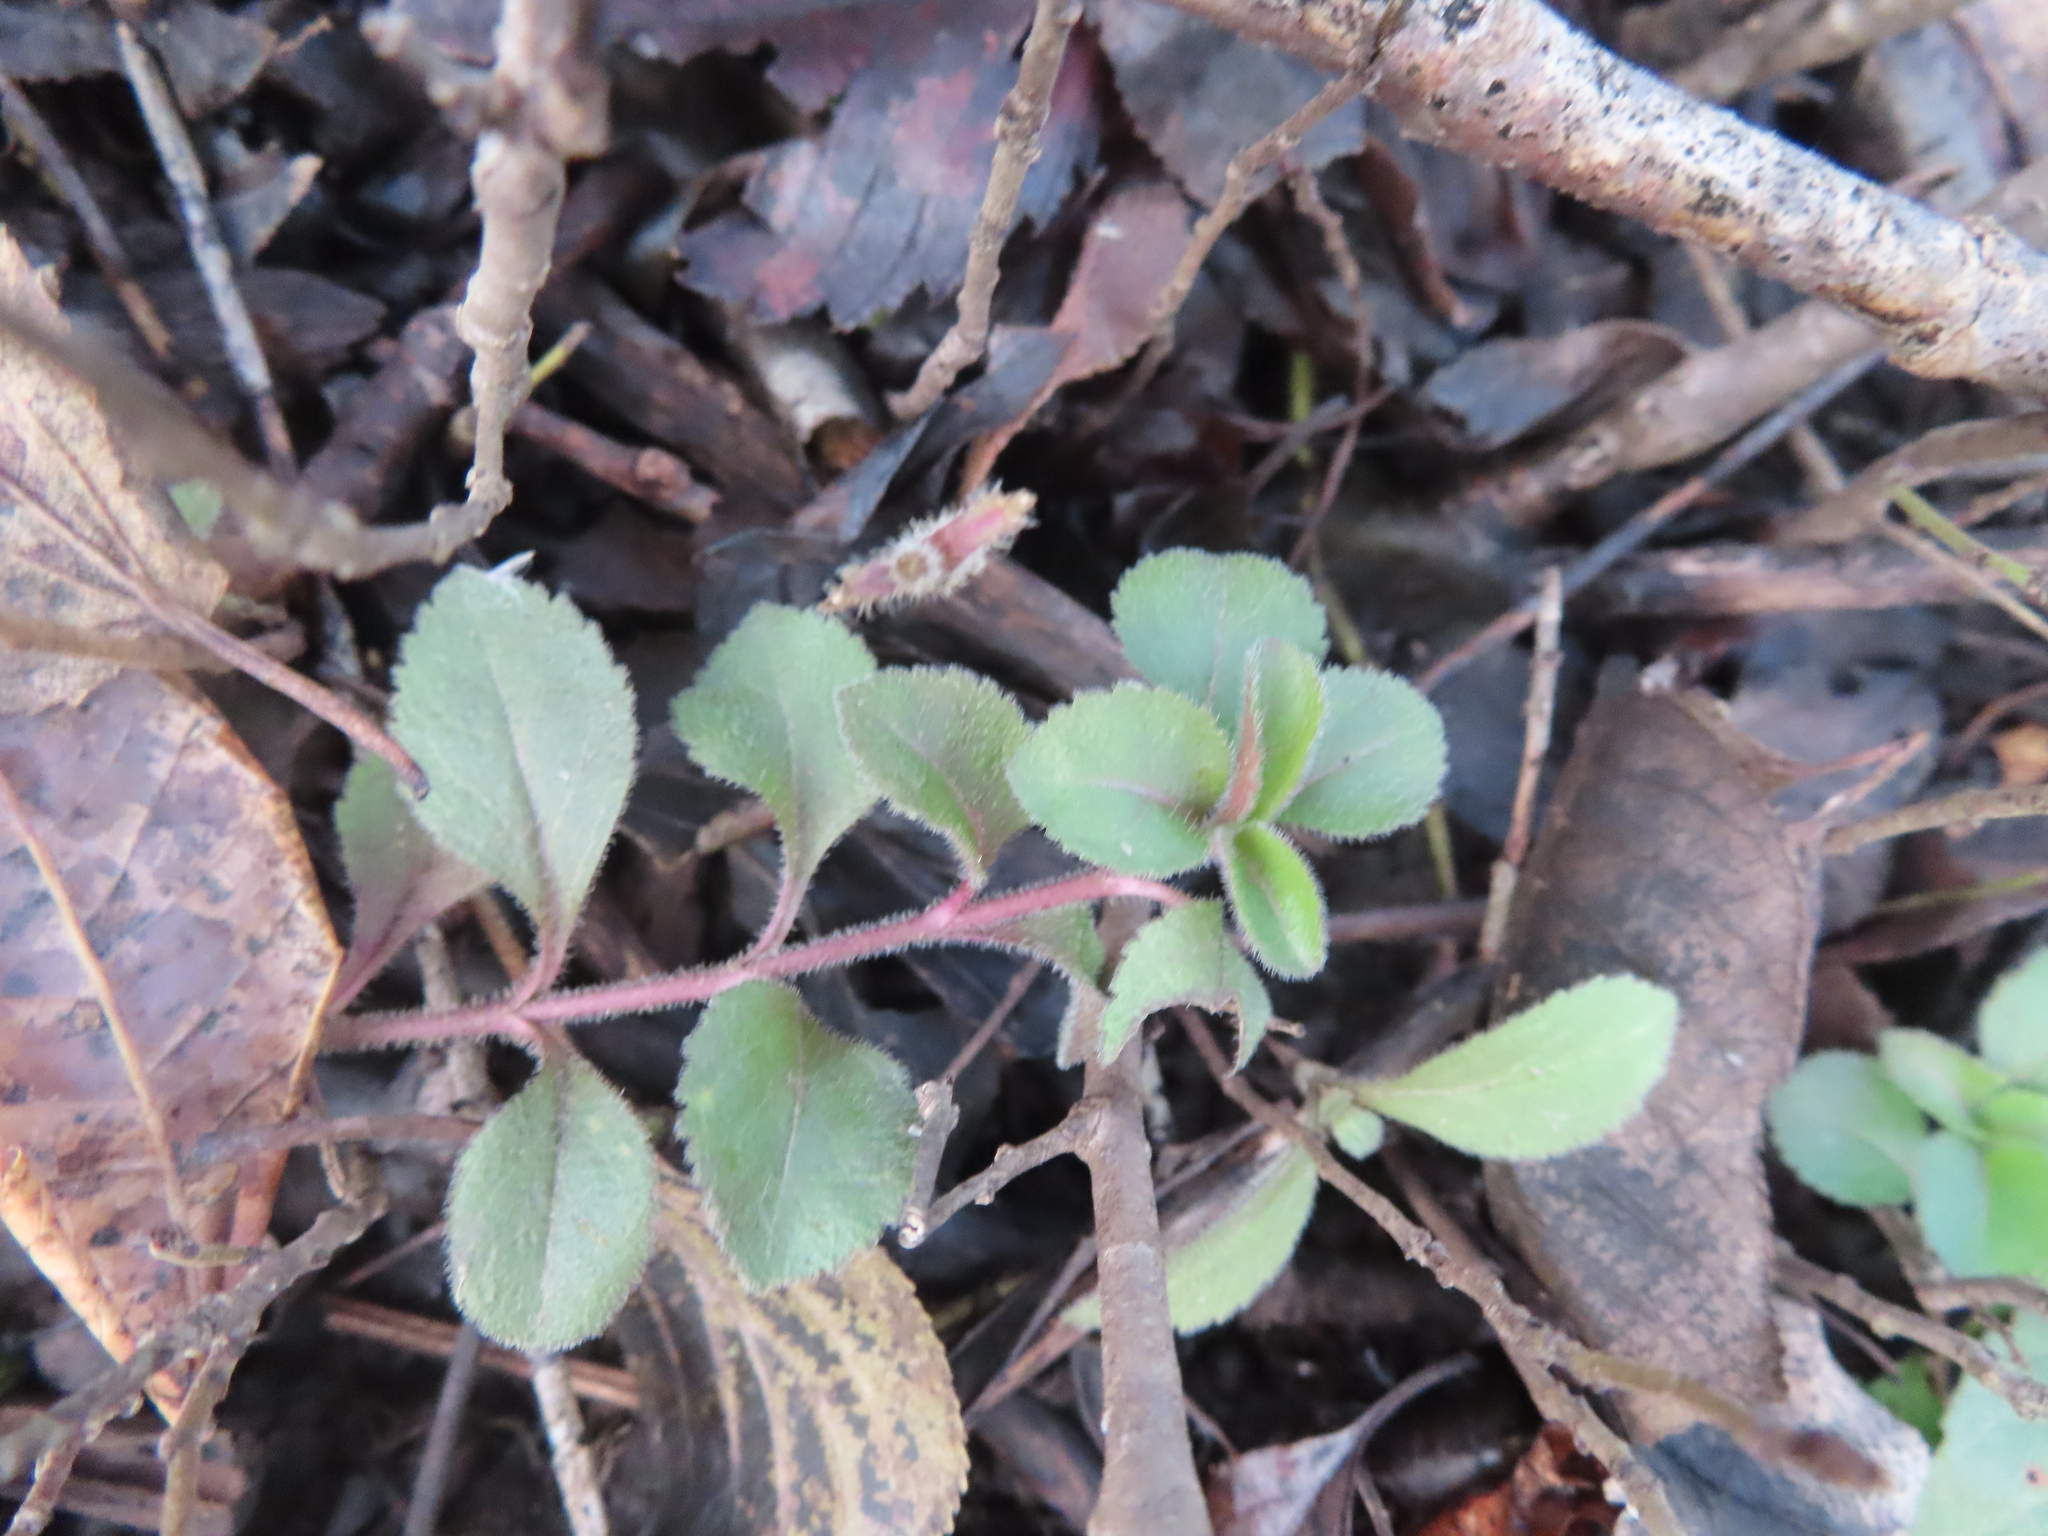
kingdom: Plantae
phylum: Tracheophyta
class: Magnoliopsida
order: Lamiales
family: Plantaginaceae
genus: Veronica
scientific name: Veronica officinalis
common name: Common speedwell
